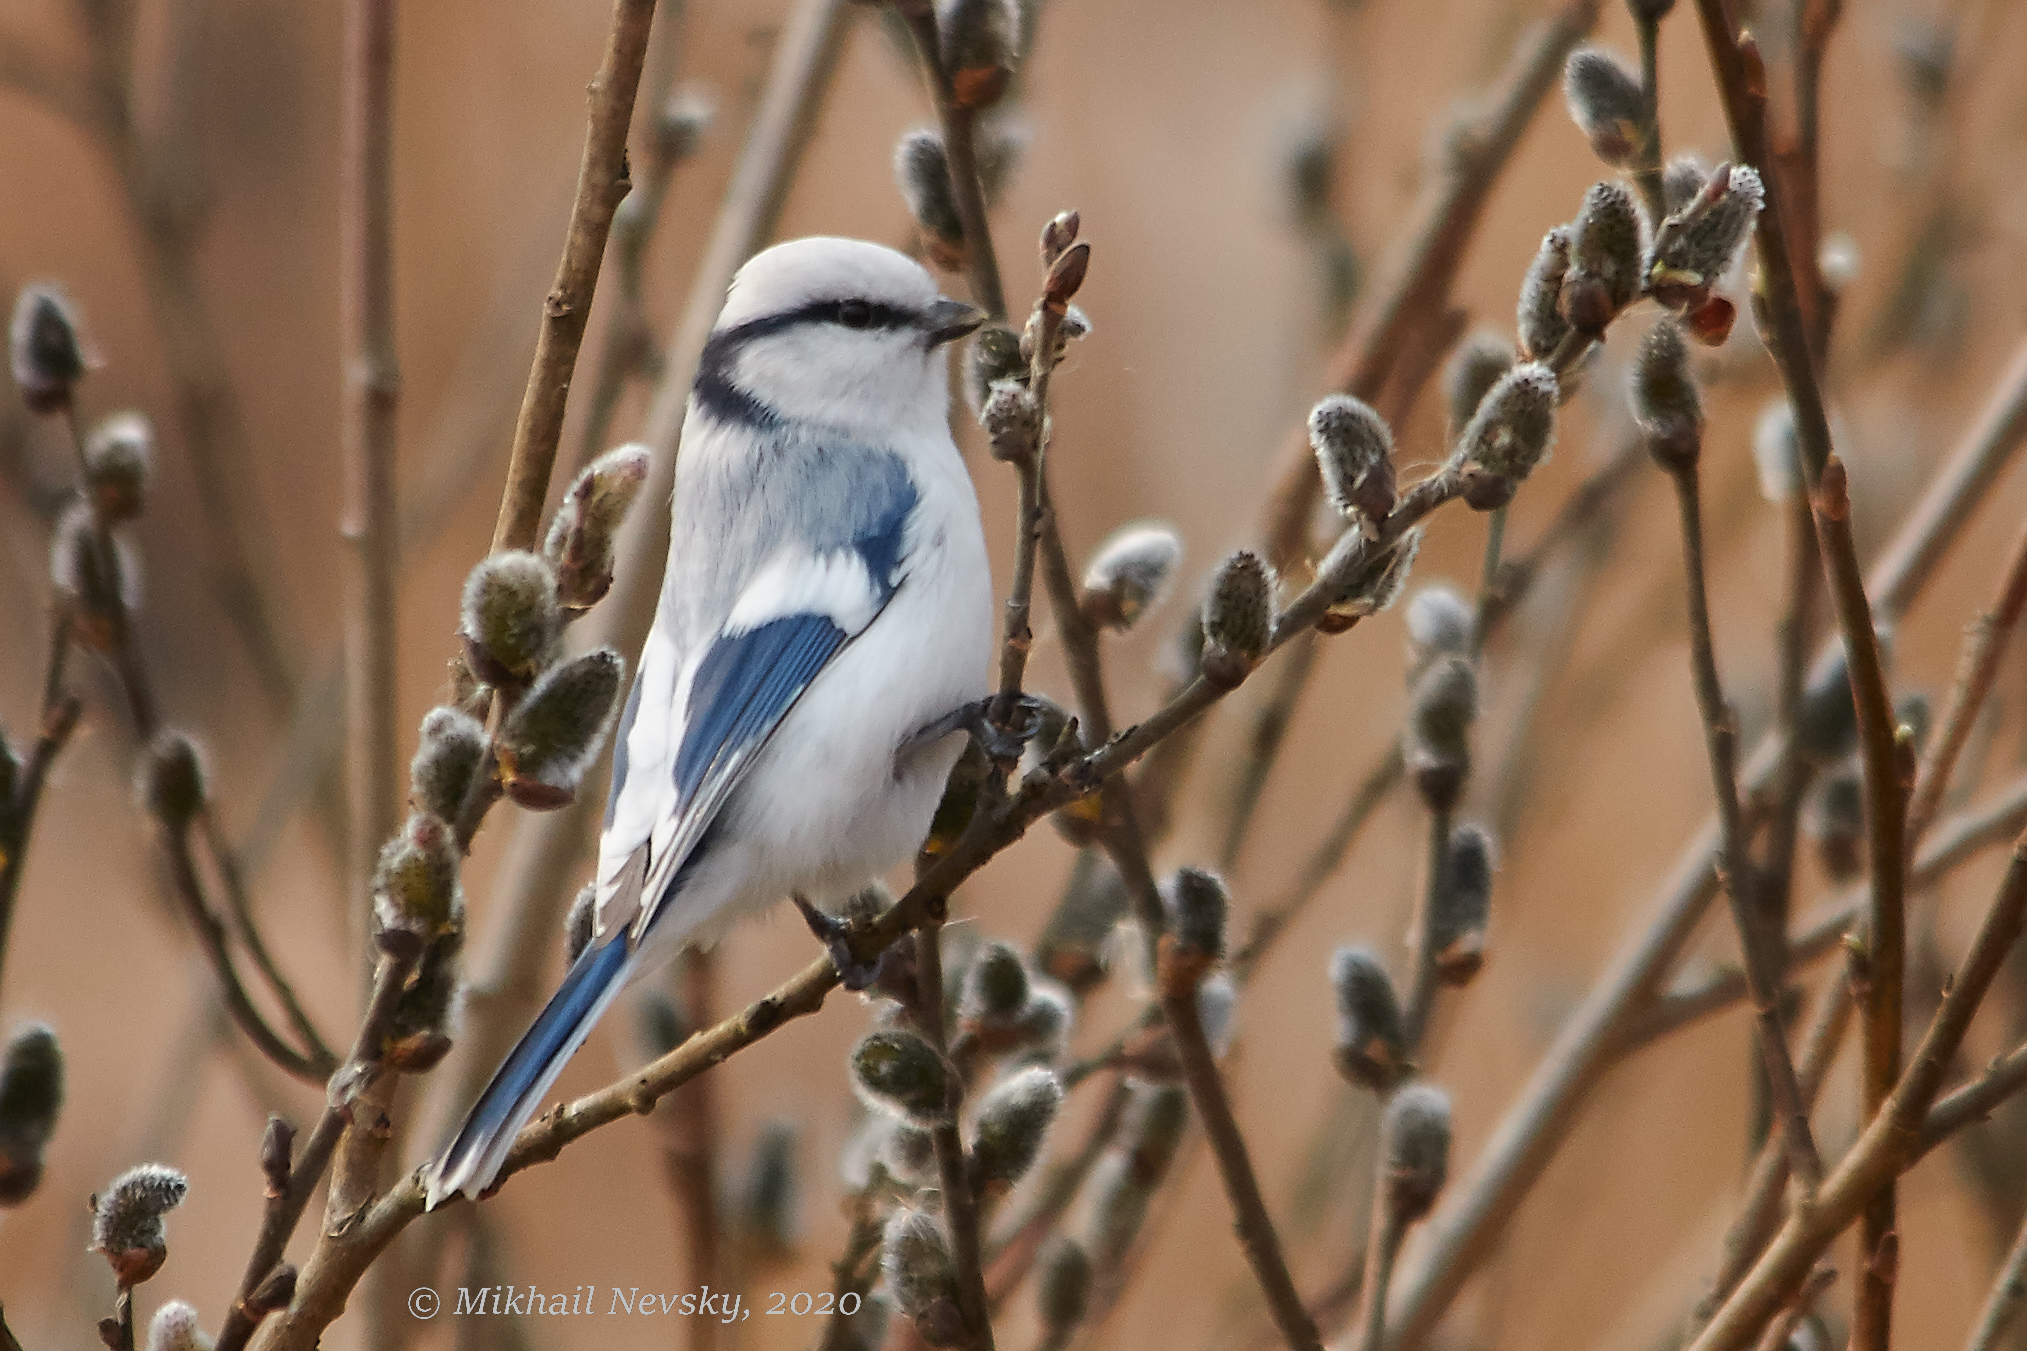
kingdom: Animalia
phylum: Chordata
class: Aves
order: Passeriformes
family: Paridae
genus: Cyanistes
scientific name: Cyanistes cyanus
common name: Azure tit
